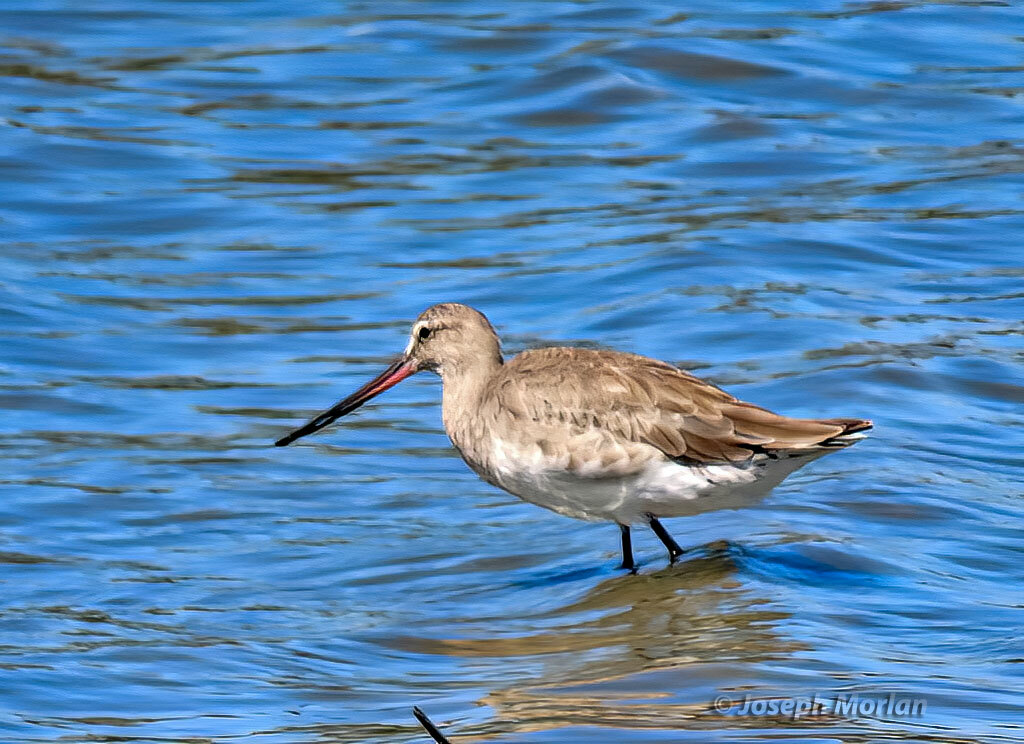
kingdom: Animalia
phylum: Chordata
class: Aves
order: Charadriiformes
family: Scolopacidae
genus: Limosa
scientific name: Limosa haemastica
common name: Hudsonian godwit
